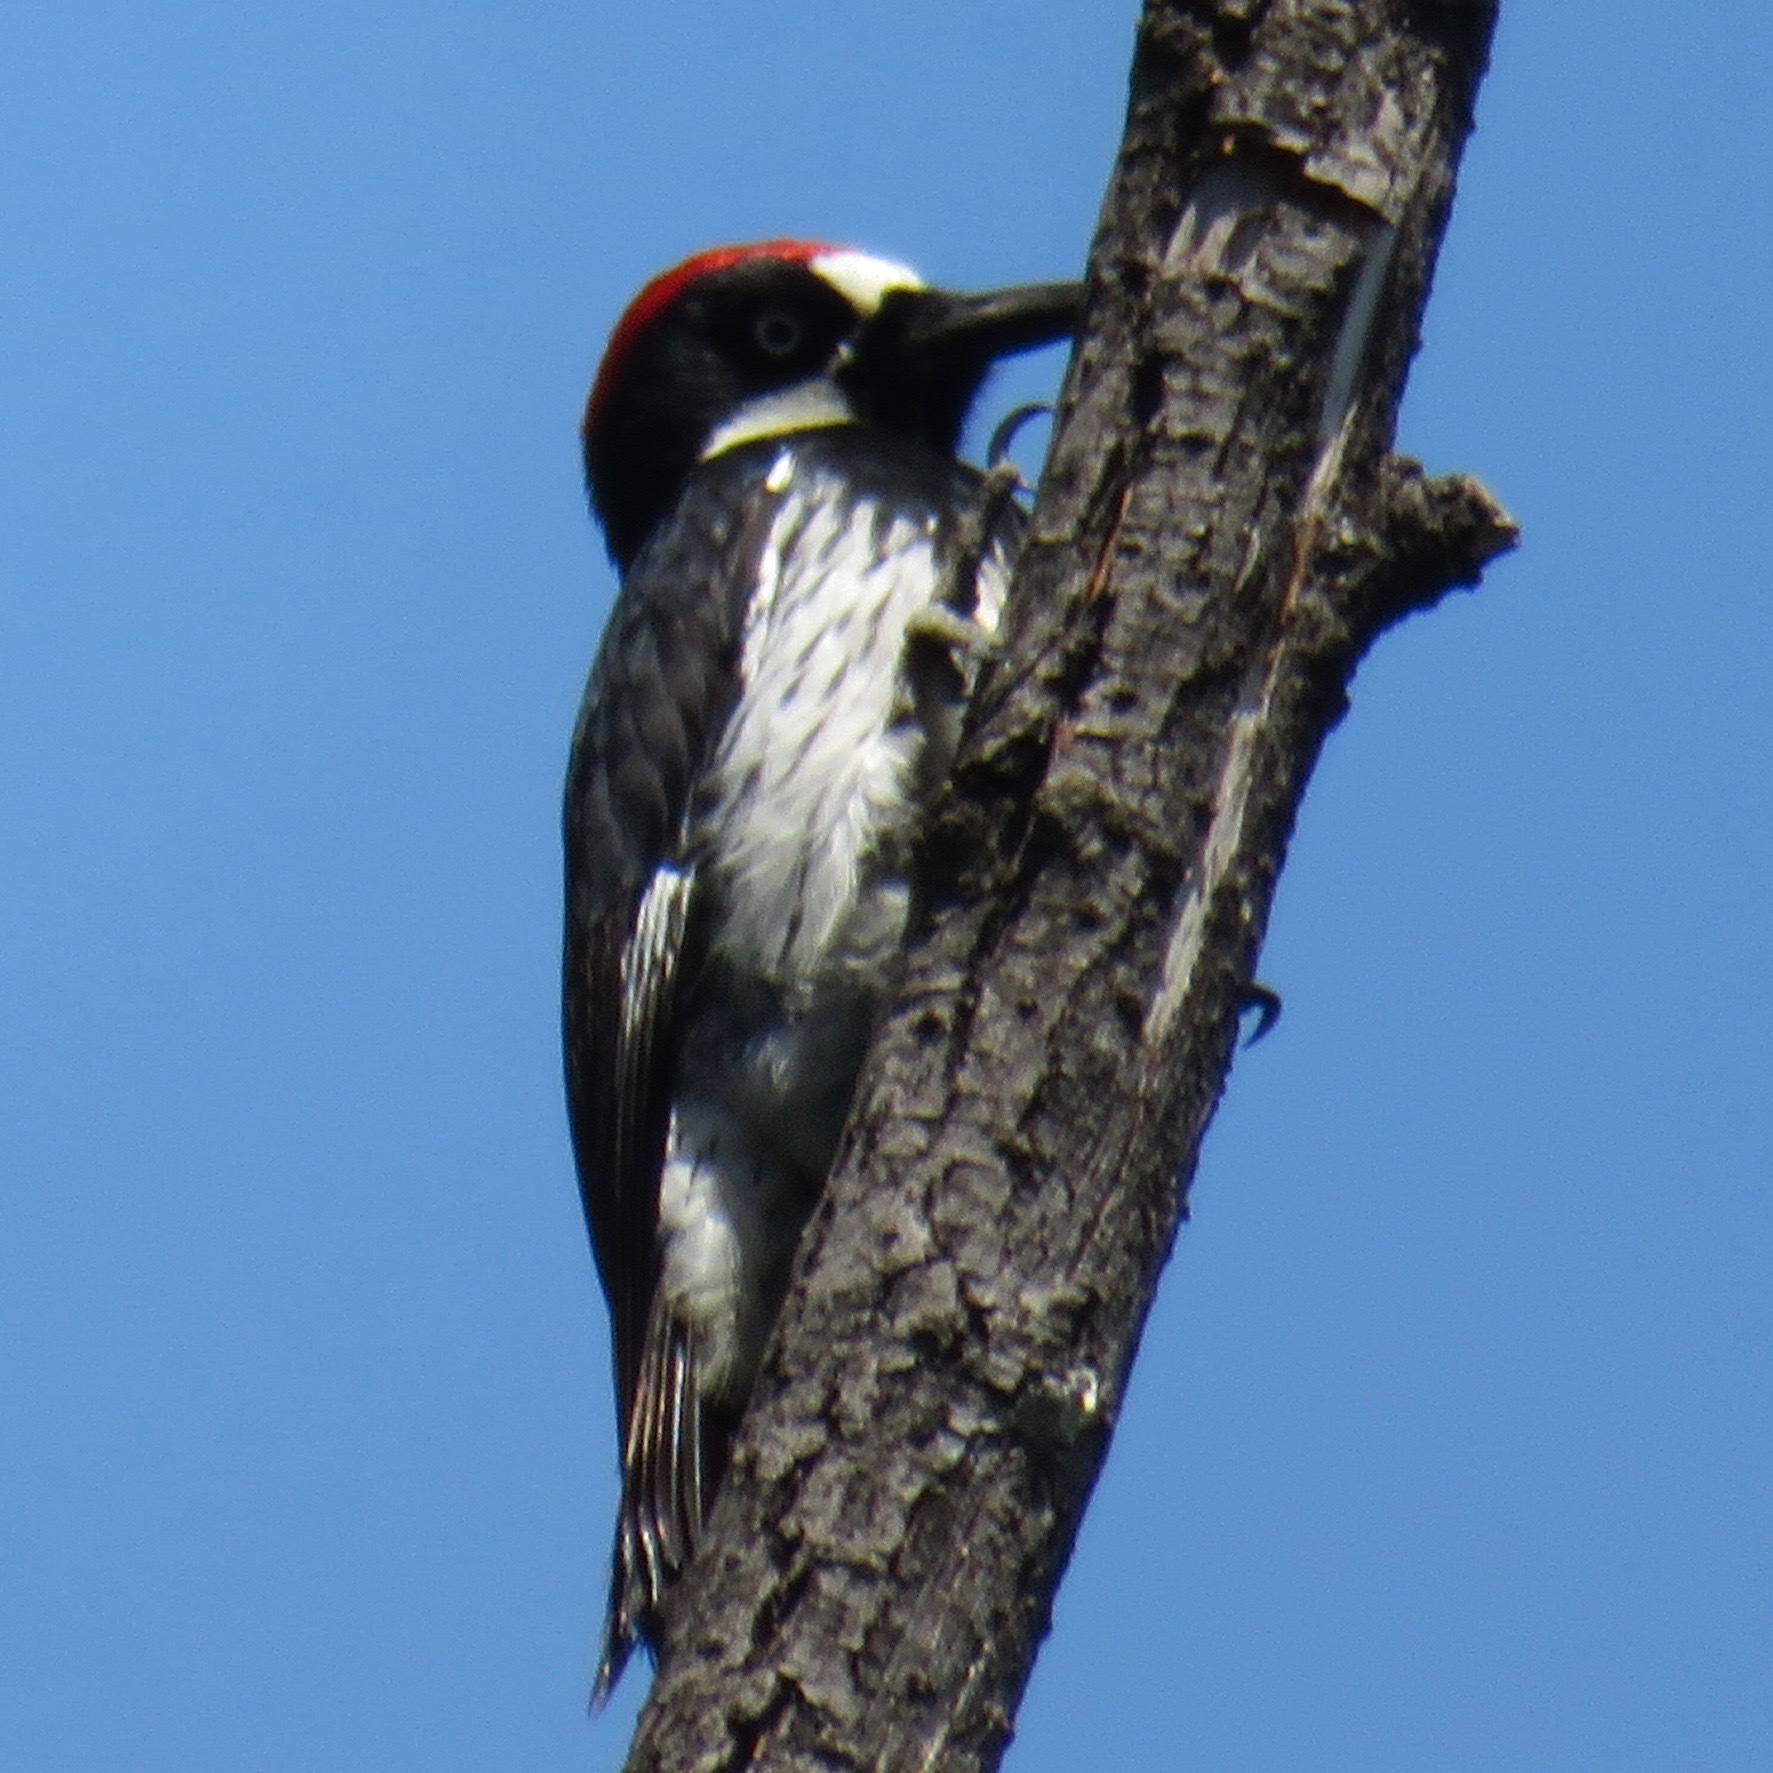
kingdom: Animalia
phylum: Chordata
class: Aves
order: Piciformes
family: Picidae
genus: Melanerpes
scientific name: Melanerpes formicivorus
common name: Acorn woodpecker
